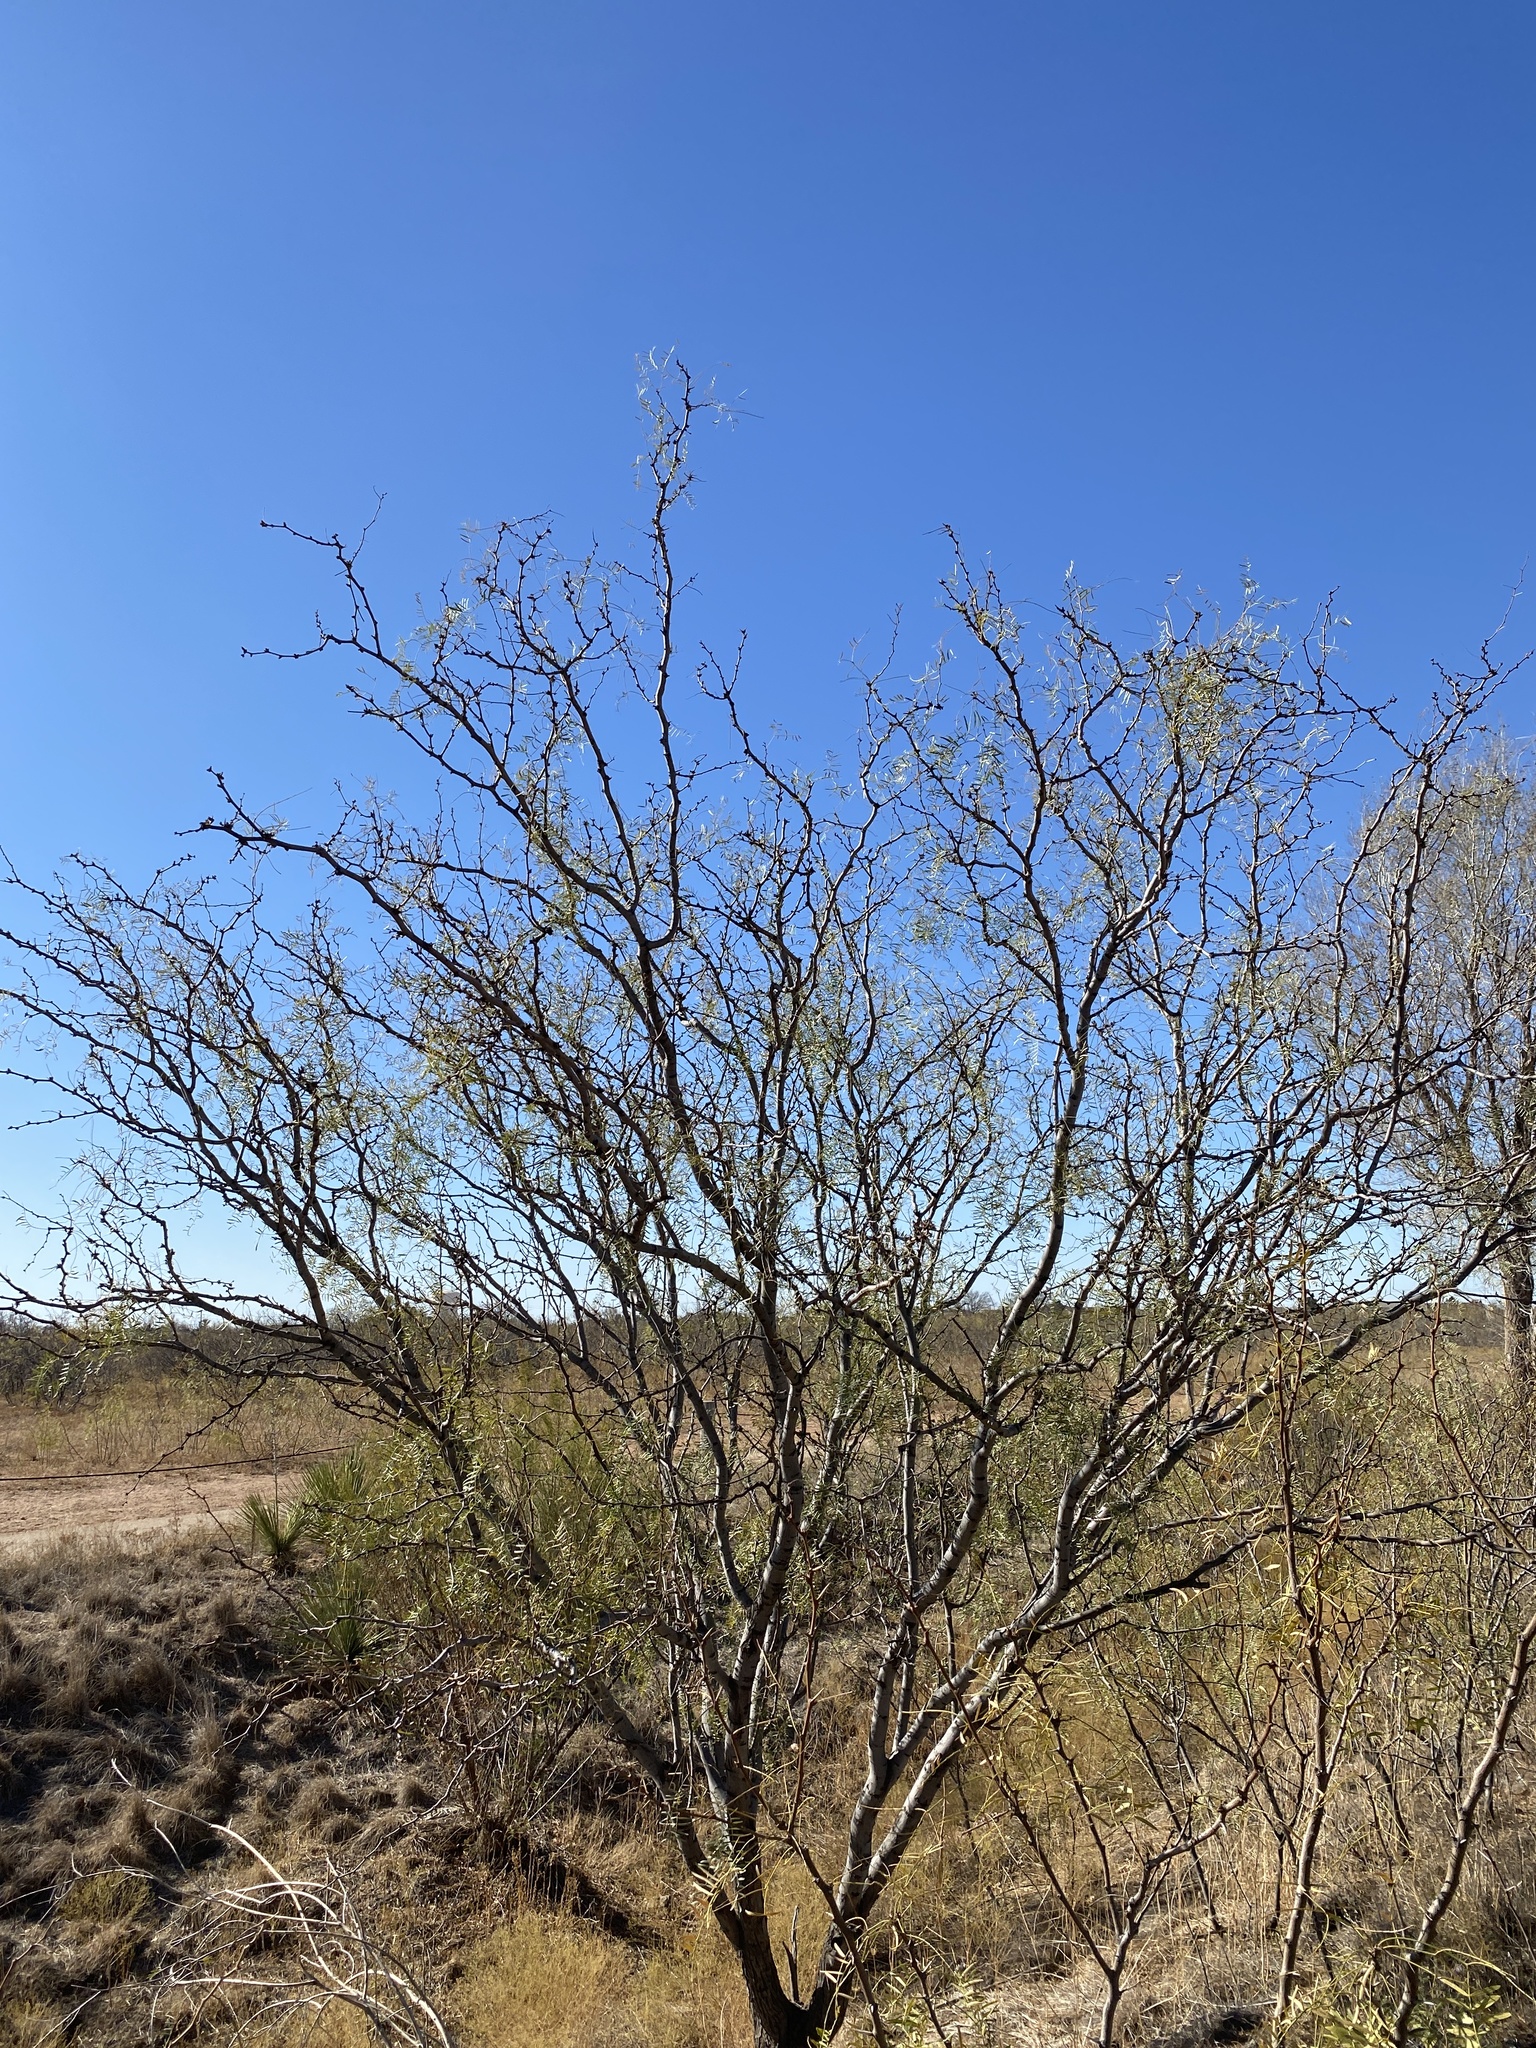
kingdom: Plantae
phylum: Tracheophyta
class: Magnoliopsida
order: Fabales
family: Fabaceae
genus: Prosopis
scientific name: Prosopis glandulosa
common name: Honey mesquite
